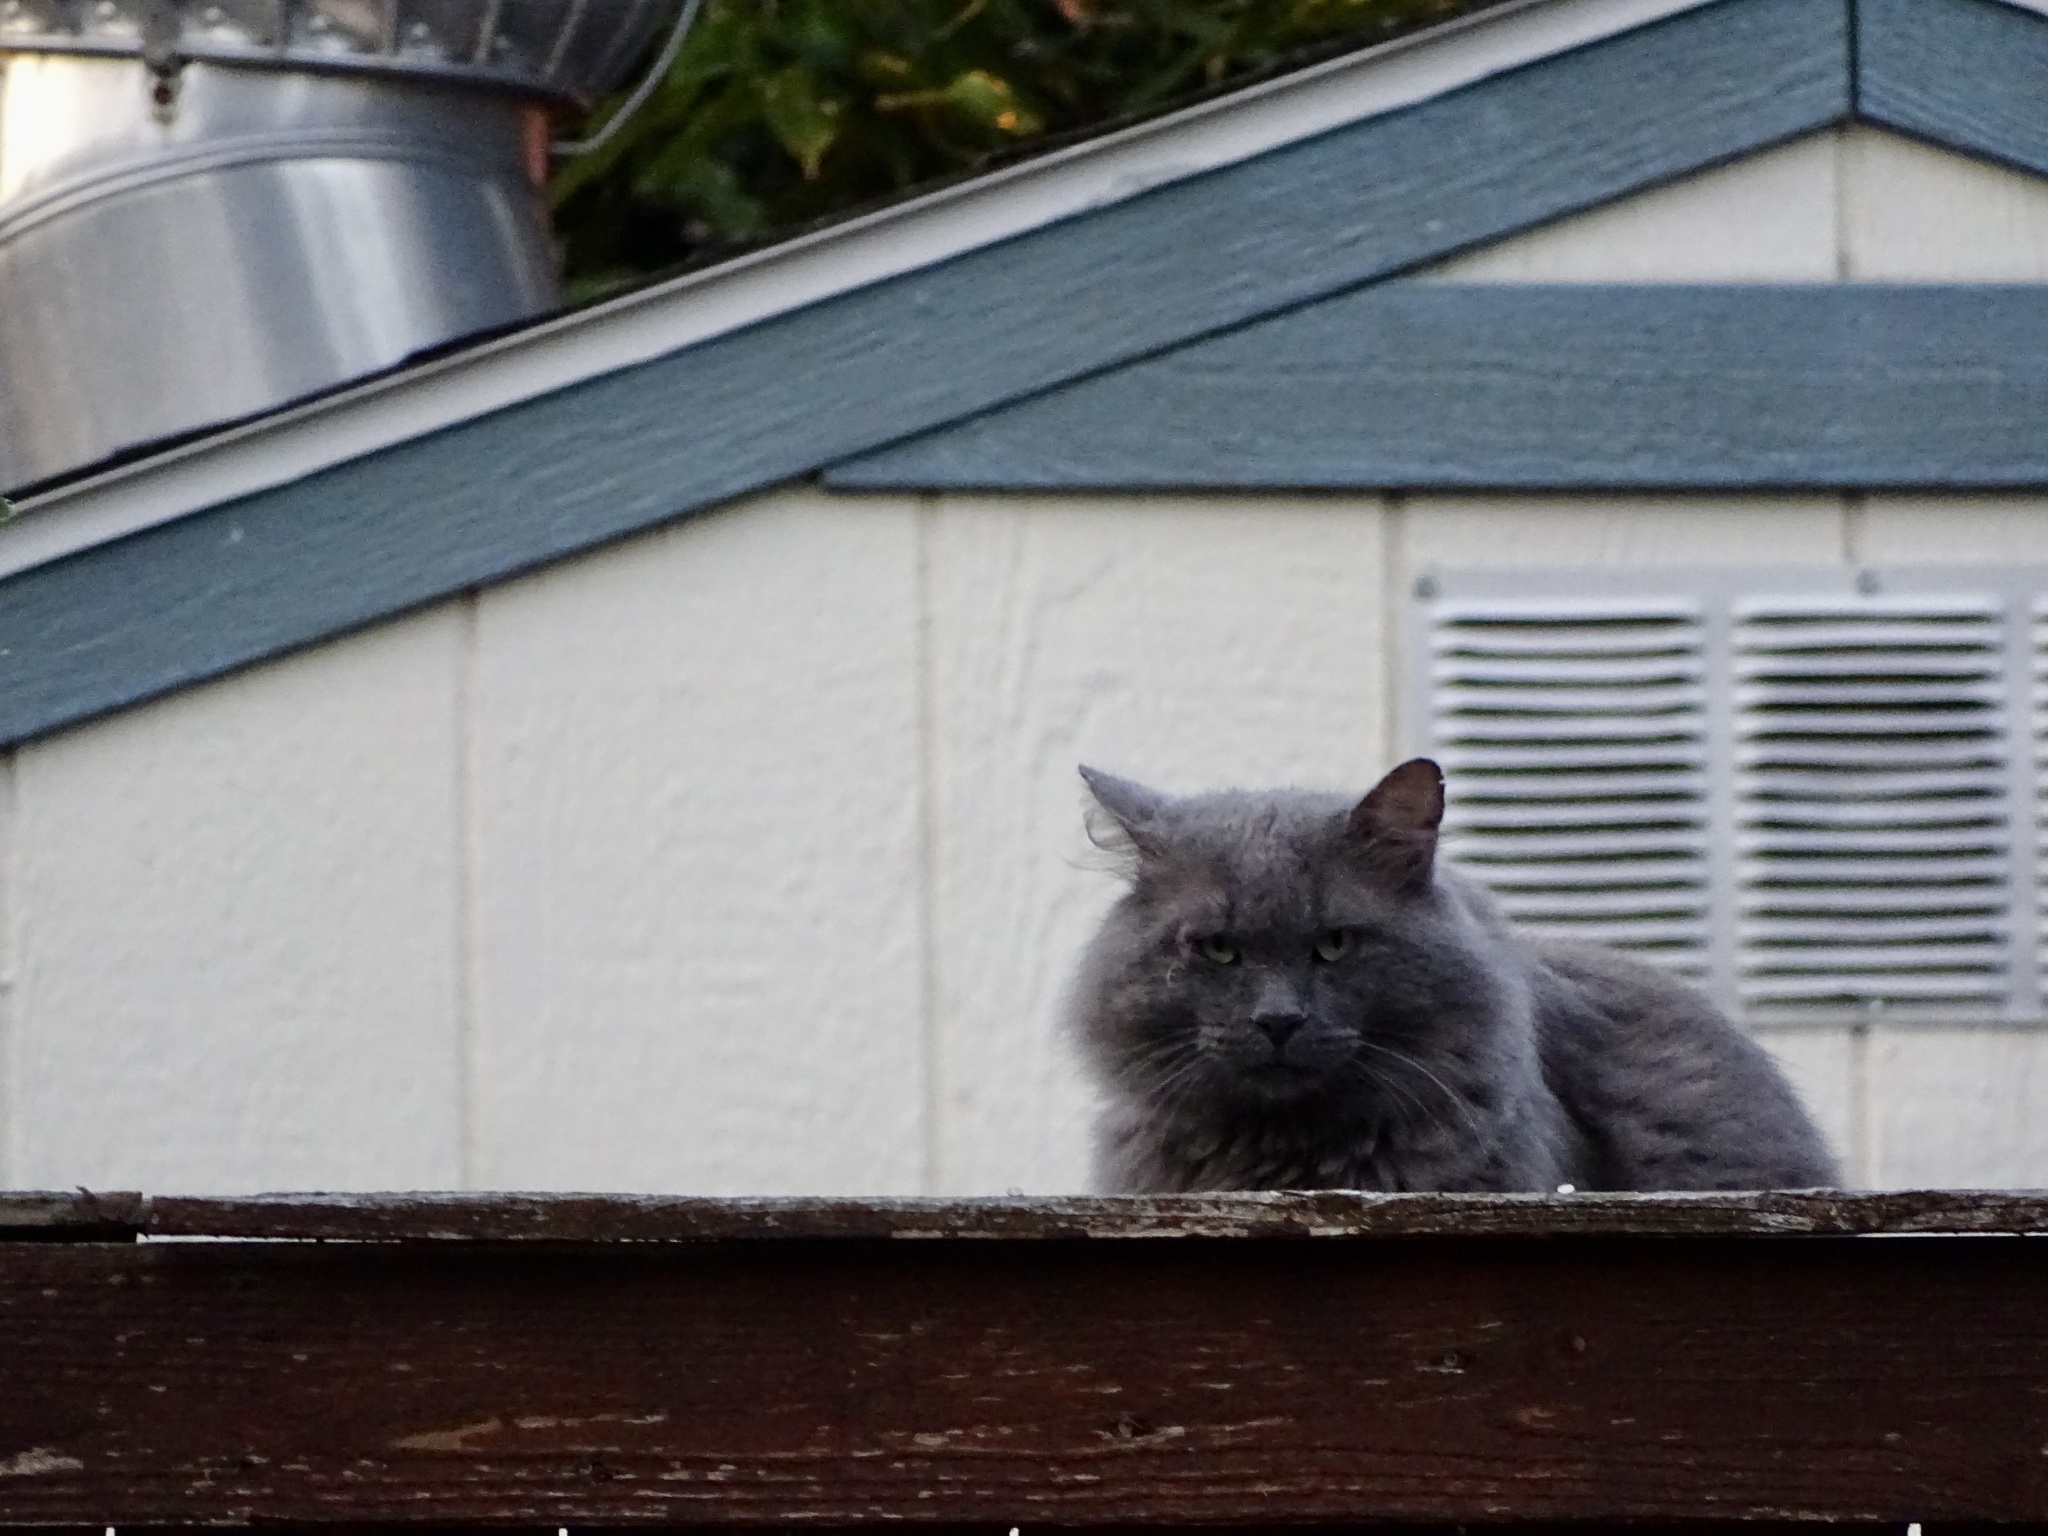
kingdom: Animalia
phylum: Chordata
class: Mammalia
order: Carnivora
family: Felidae
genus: Felis
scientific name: Felis catus
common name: Domestic cat
